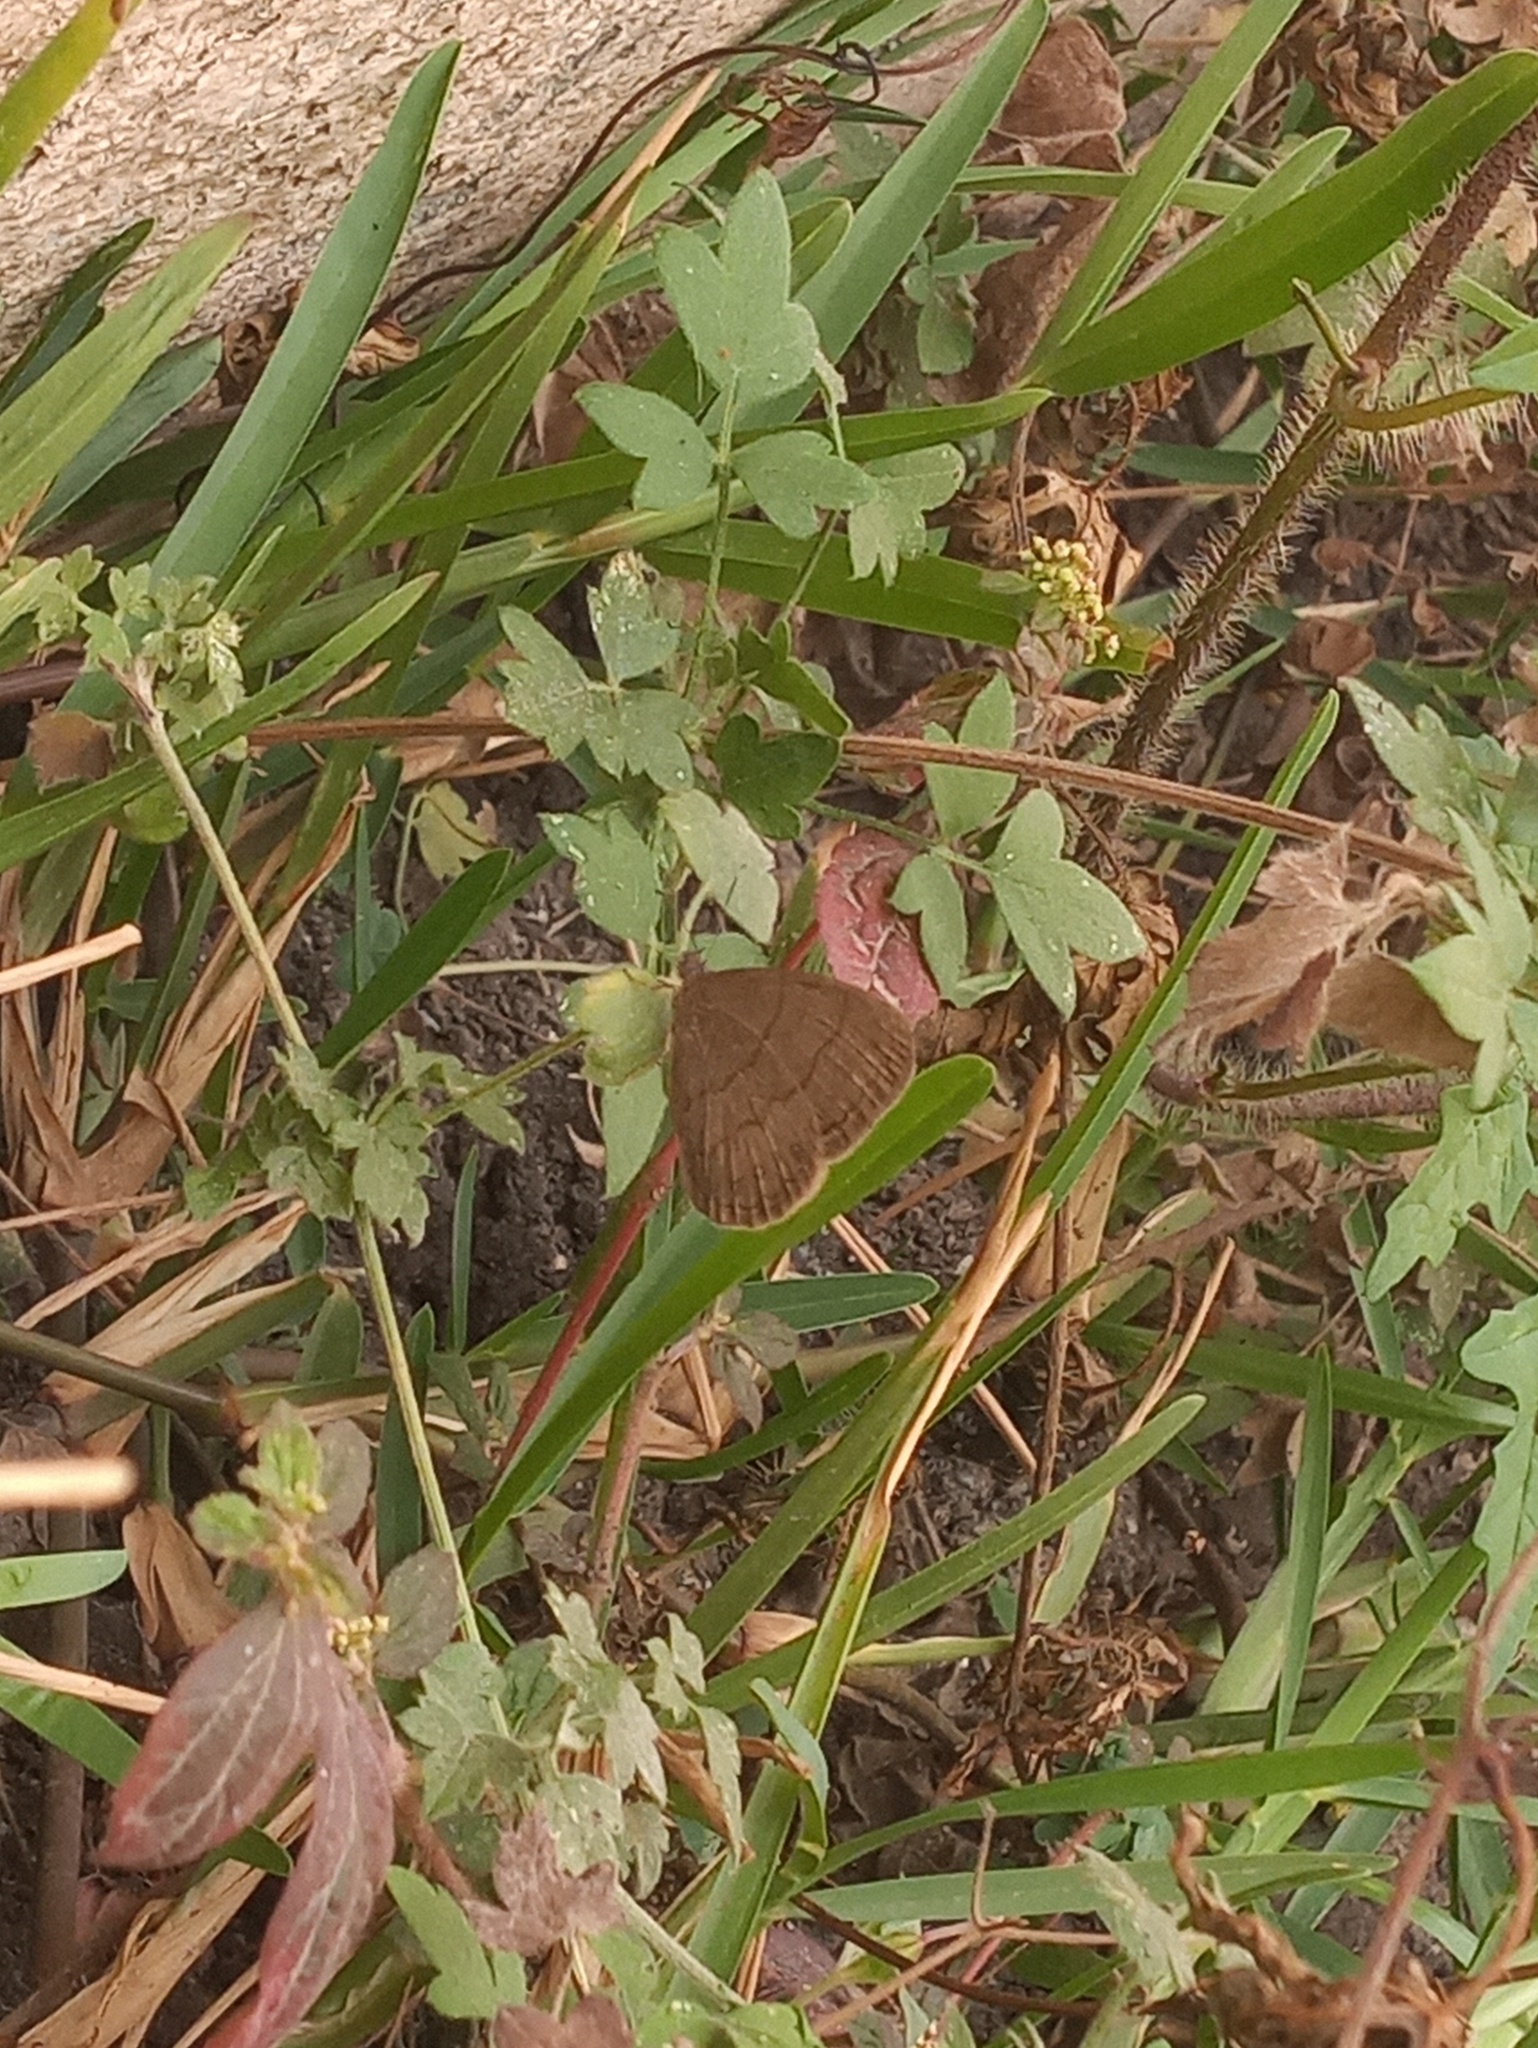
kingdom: Animalia
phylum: Arthropoda
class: Insecta
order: Lepidoptera
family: Nymphalidae
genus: Hermeuptychia
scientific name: Hermeuptychia hermybius
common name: South texas satyr
